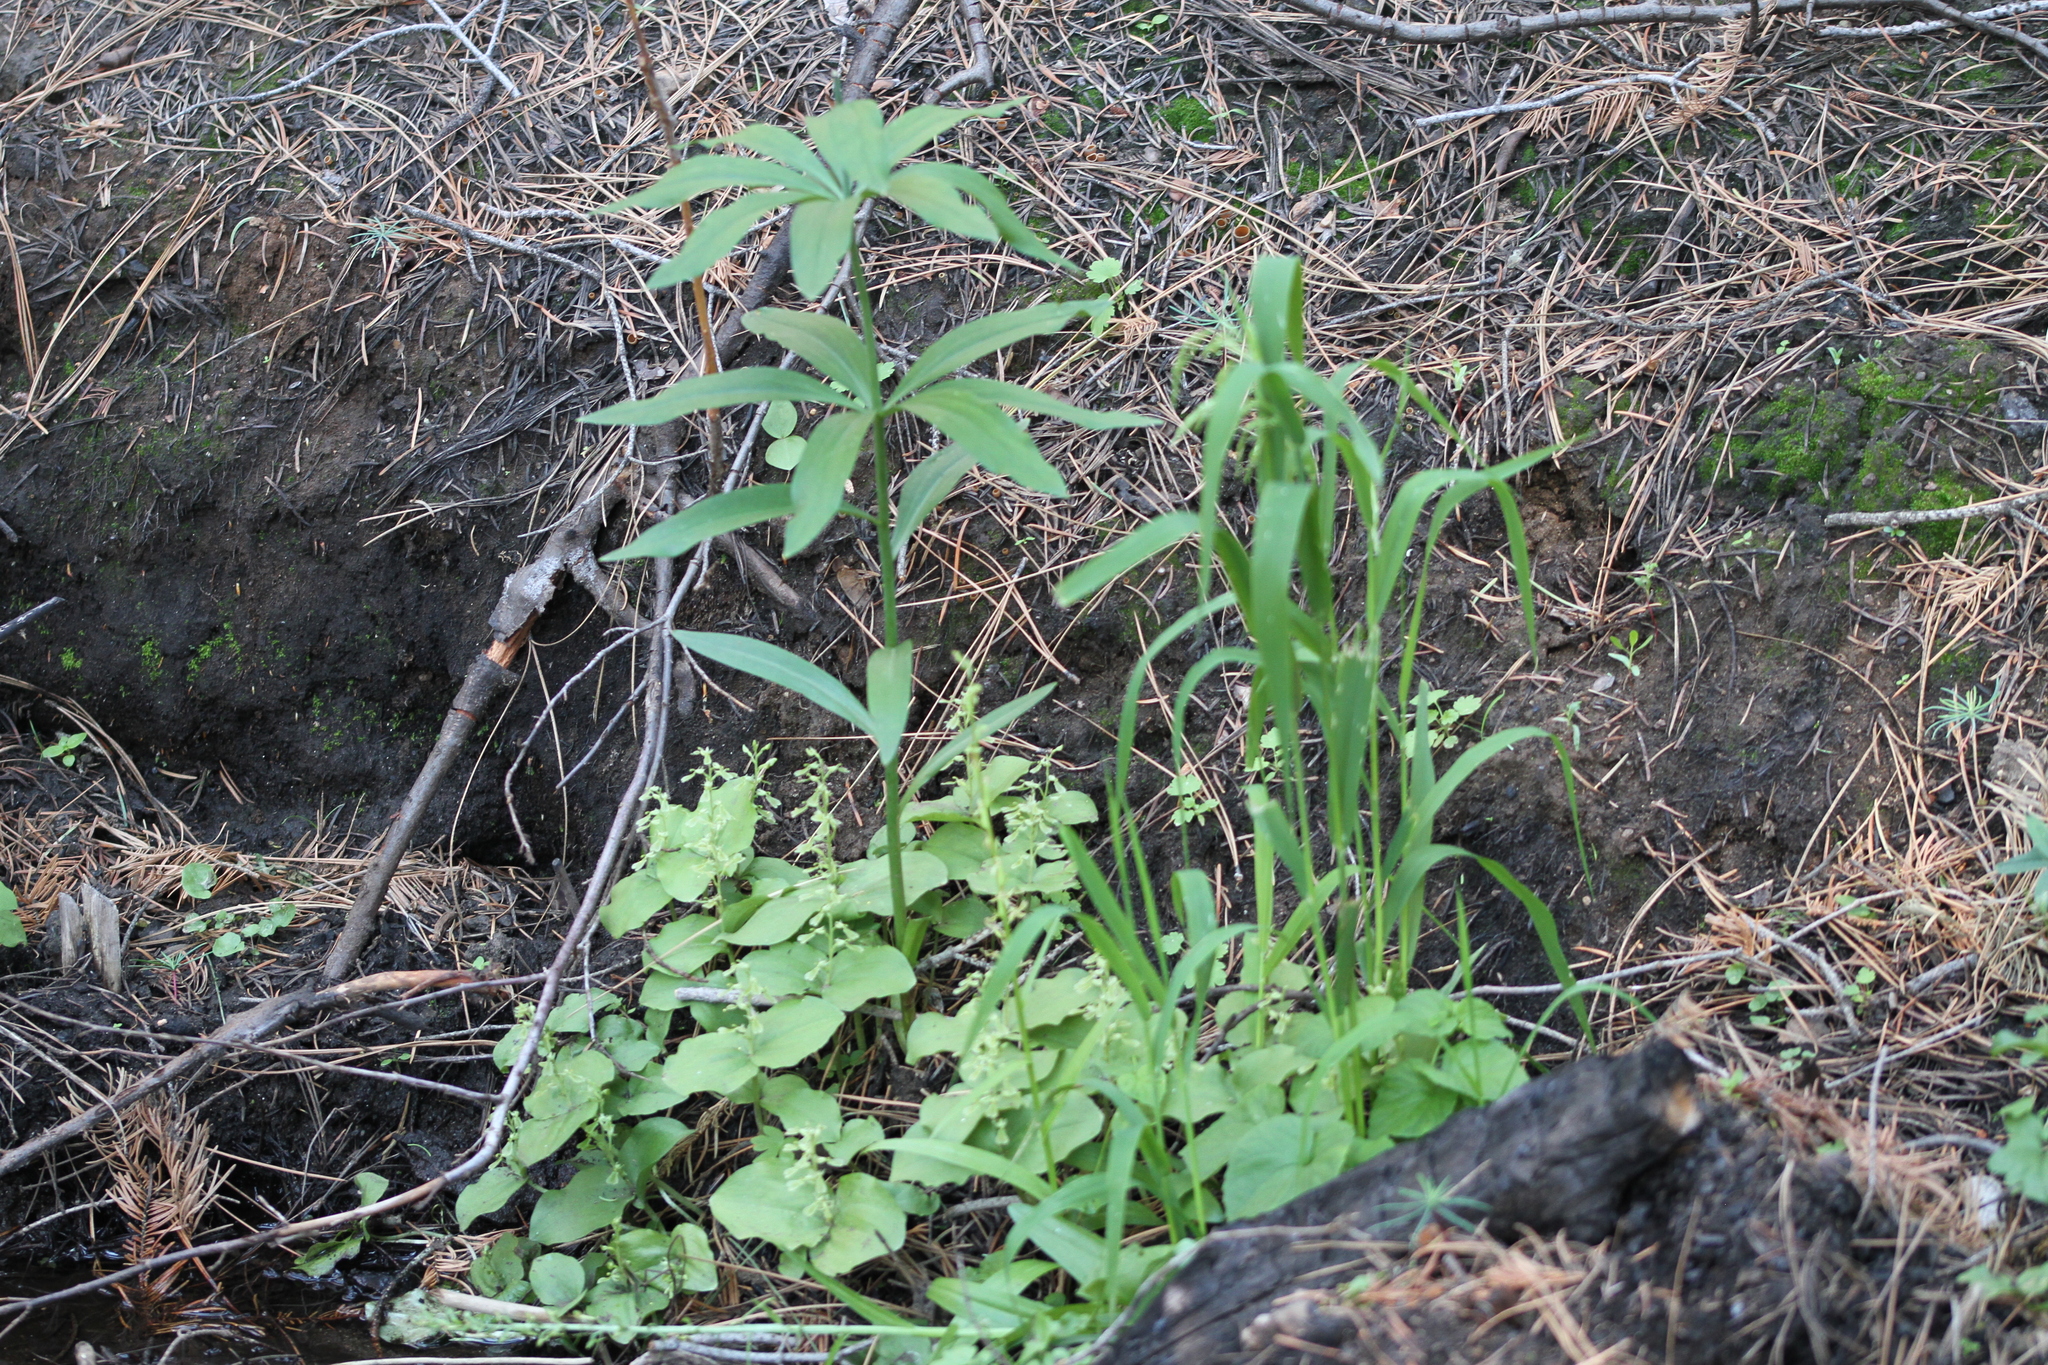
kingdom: Plantae
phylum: Tracheophyta
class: Liliopsida
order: Asparagales
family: Orchidaceae
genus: Neottia
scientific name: Neottia convallarioides
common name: Broadleaf twayblade
